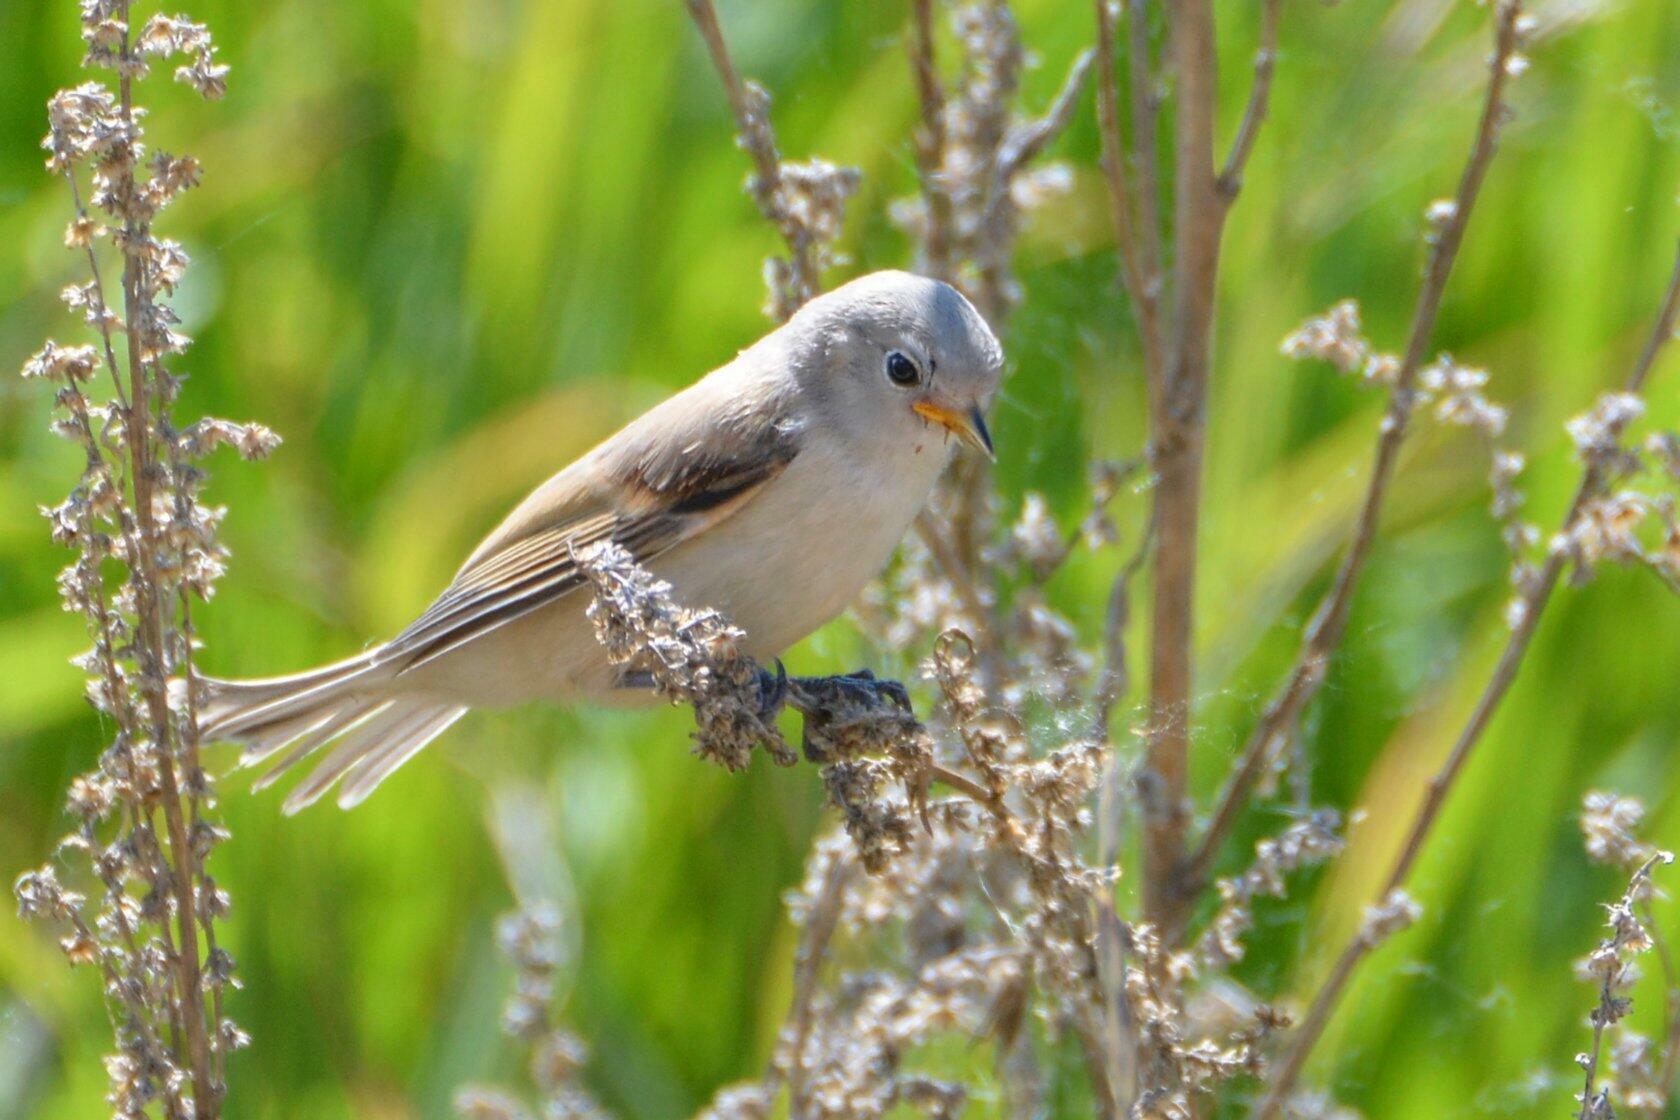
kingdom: Animalia
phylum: Chordata
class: Aves
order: Passeriformes
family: Remizidae
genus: Remiz
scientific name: Remiz pendulinus
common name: Eurasian penduline tit
